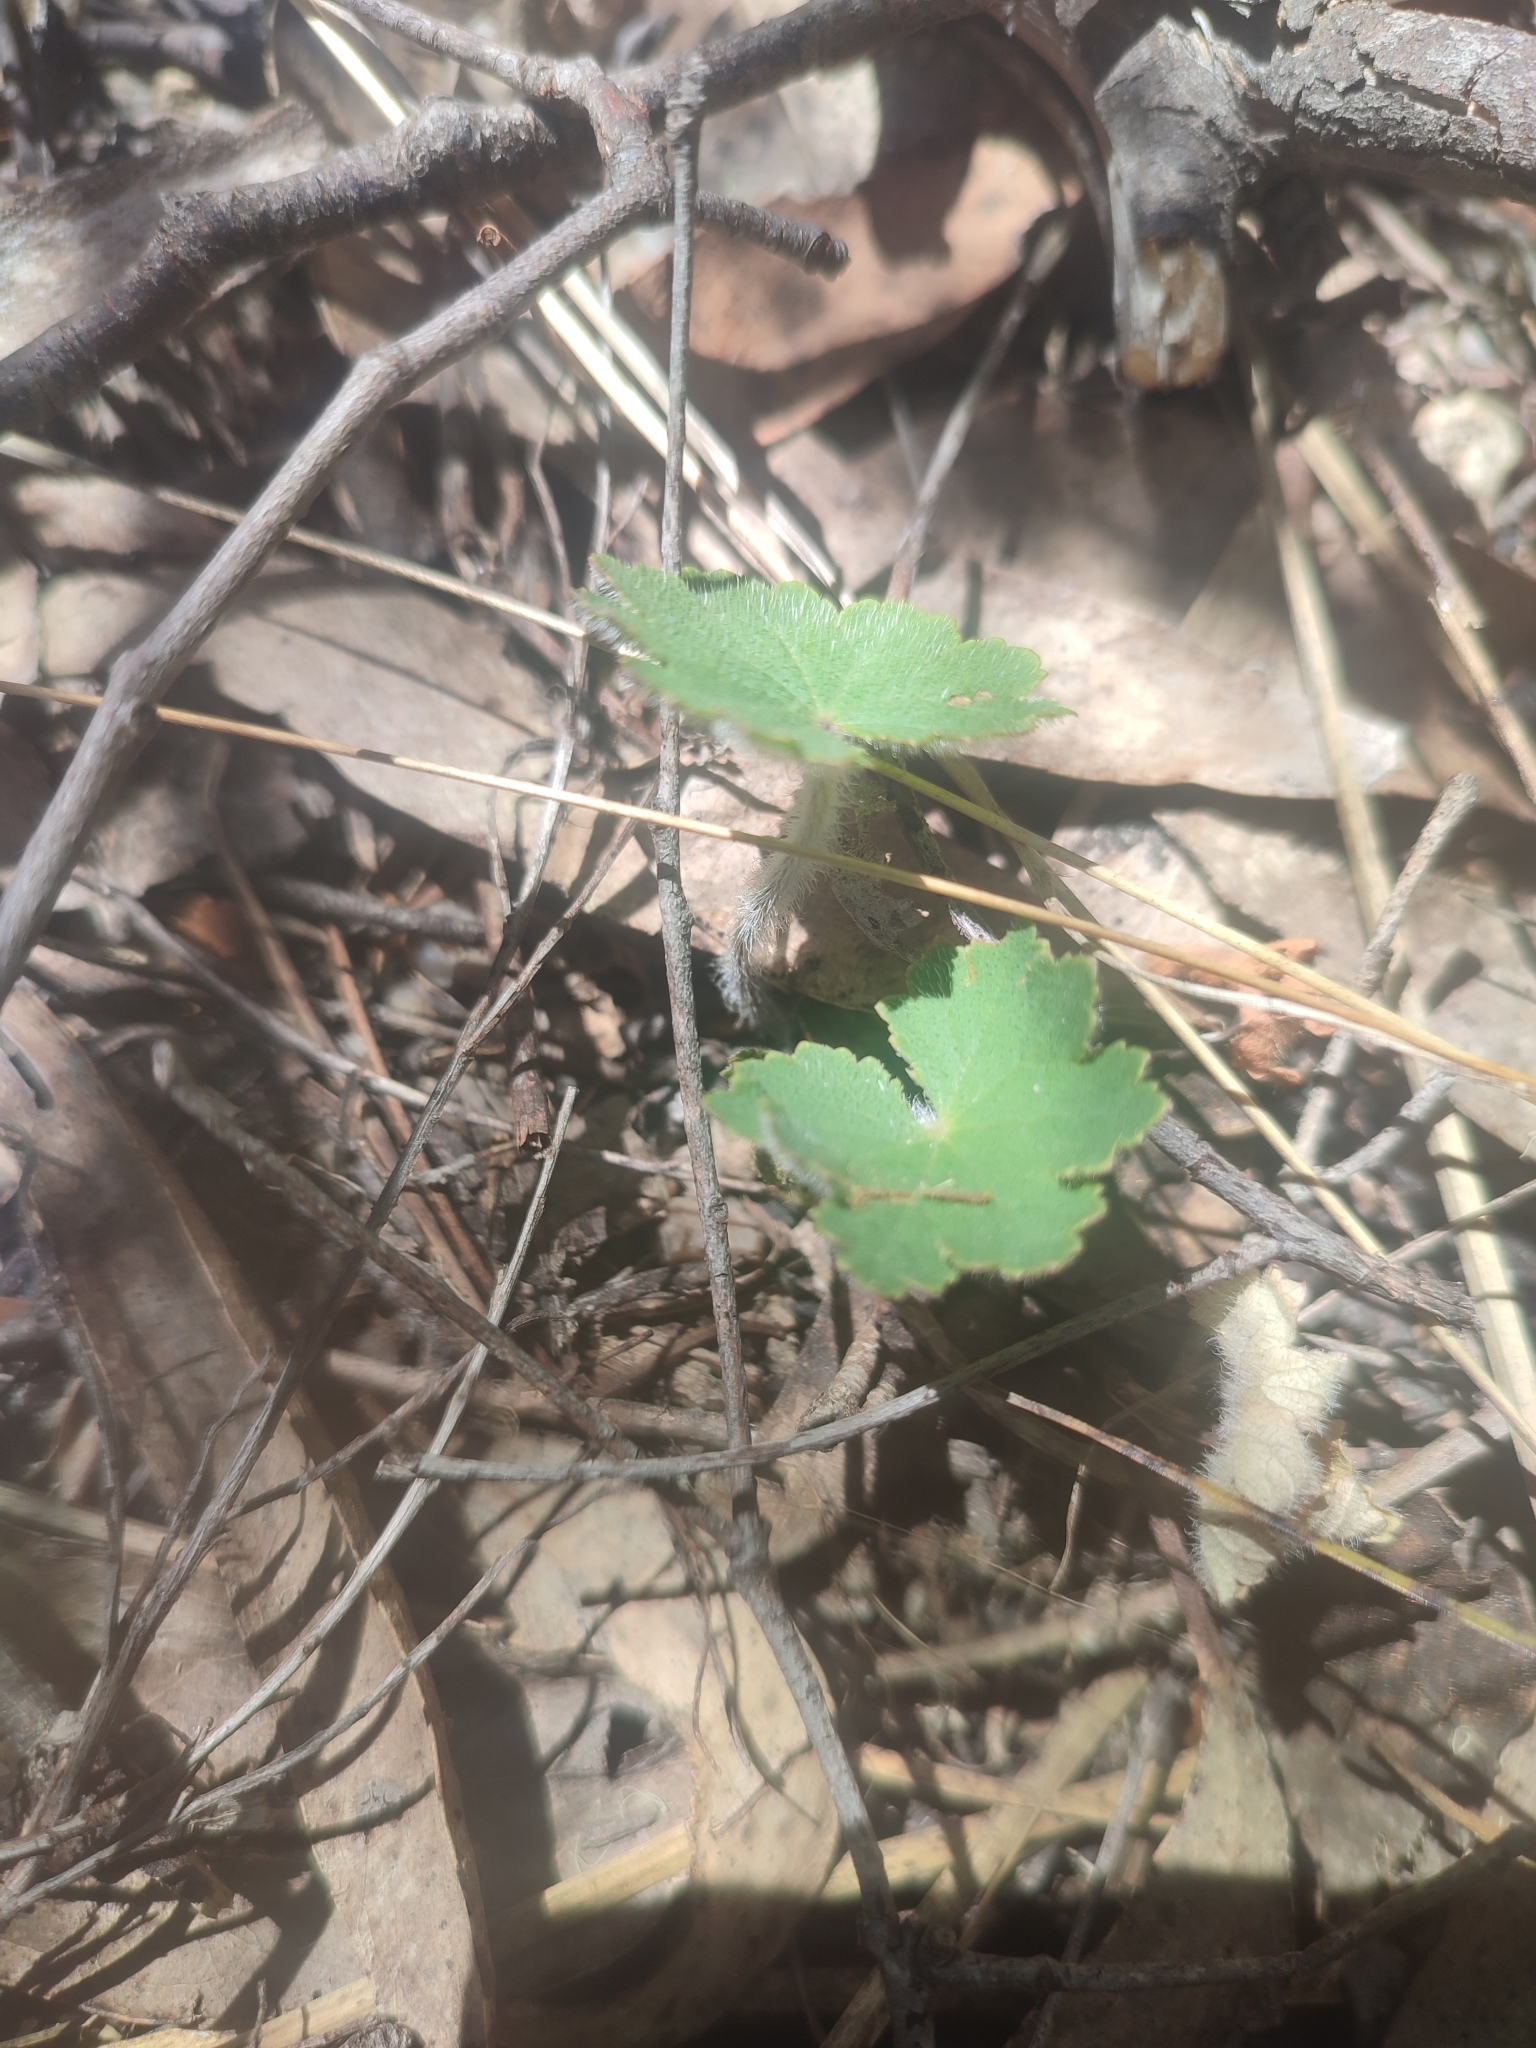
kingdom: Plantae
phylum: Tracheophyta
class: Magnoliopsida
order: Apiales
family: Araliaceae
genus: Hydrocotyle
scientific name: Hydrocotyle laxiflora
